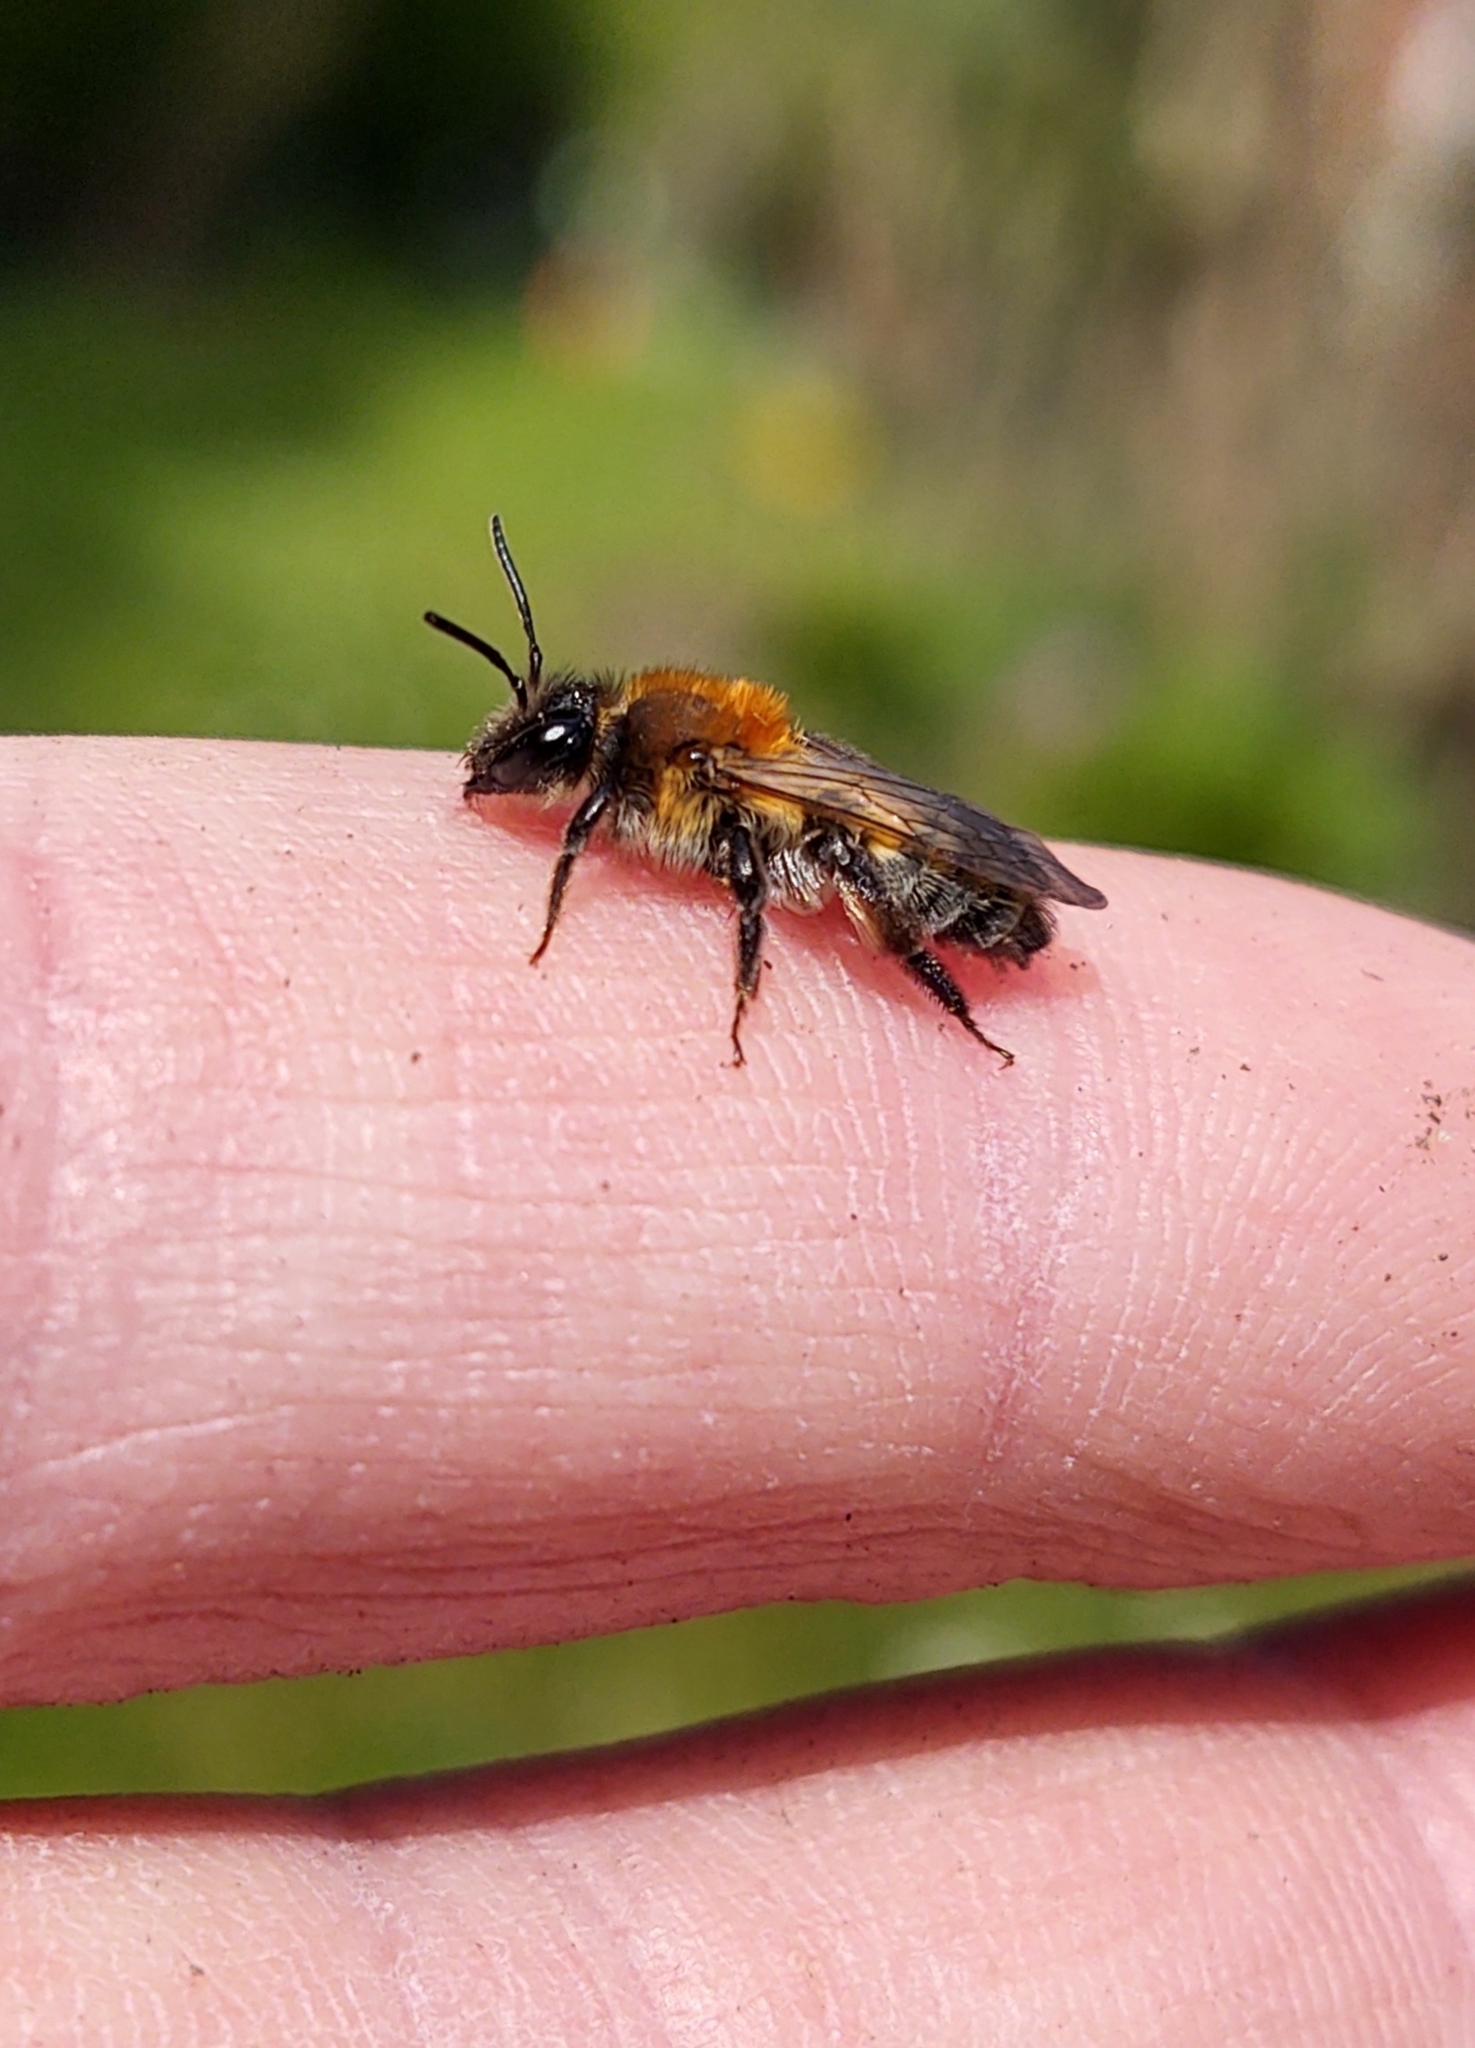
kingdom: Animalia
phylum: Arthropoda
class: Insecta
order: Hymenoptera
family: Andrenidae
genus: Andrena
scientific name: Andrena varians
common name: Blackthorn mining bee
